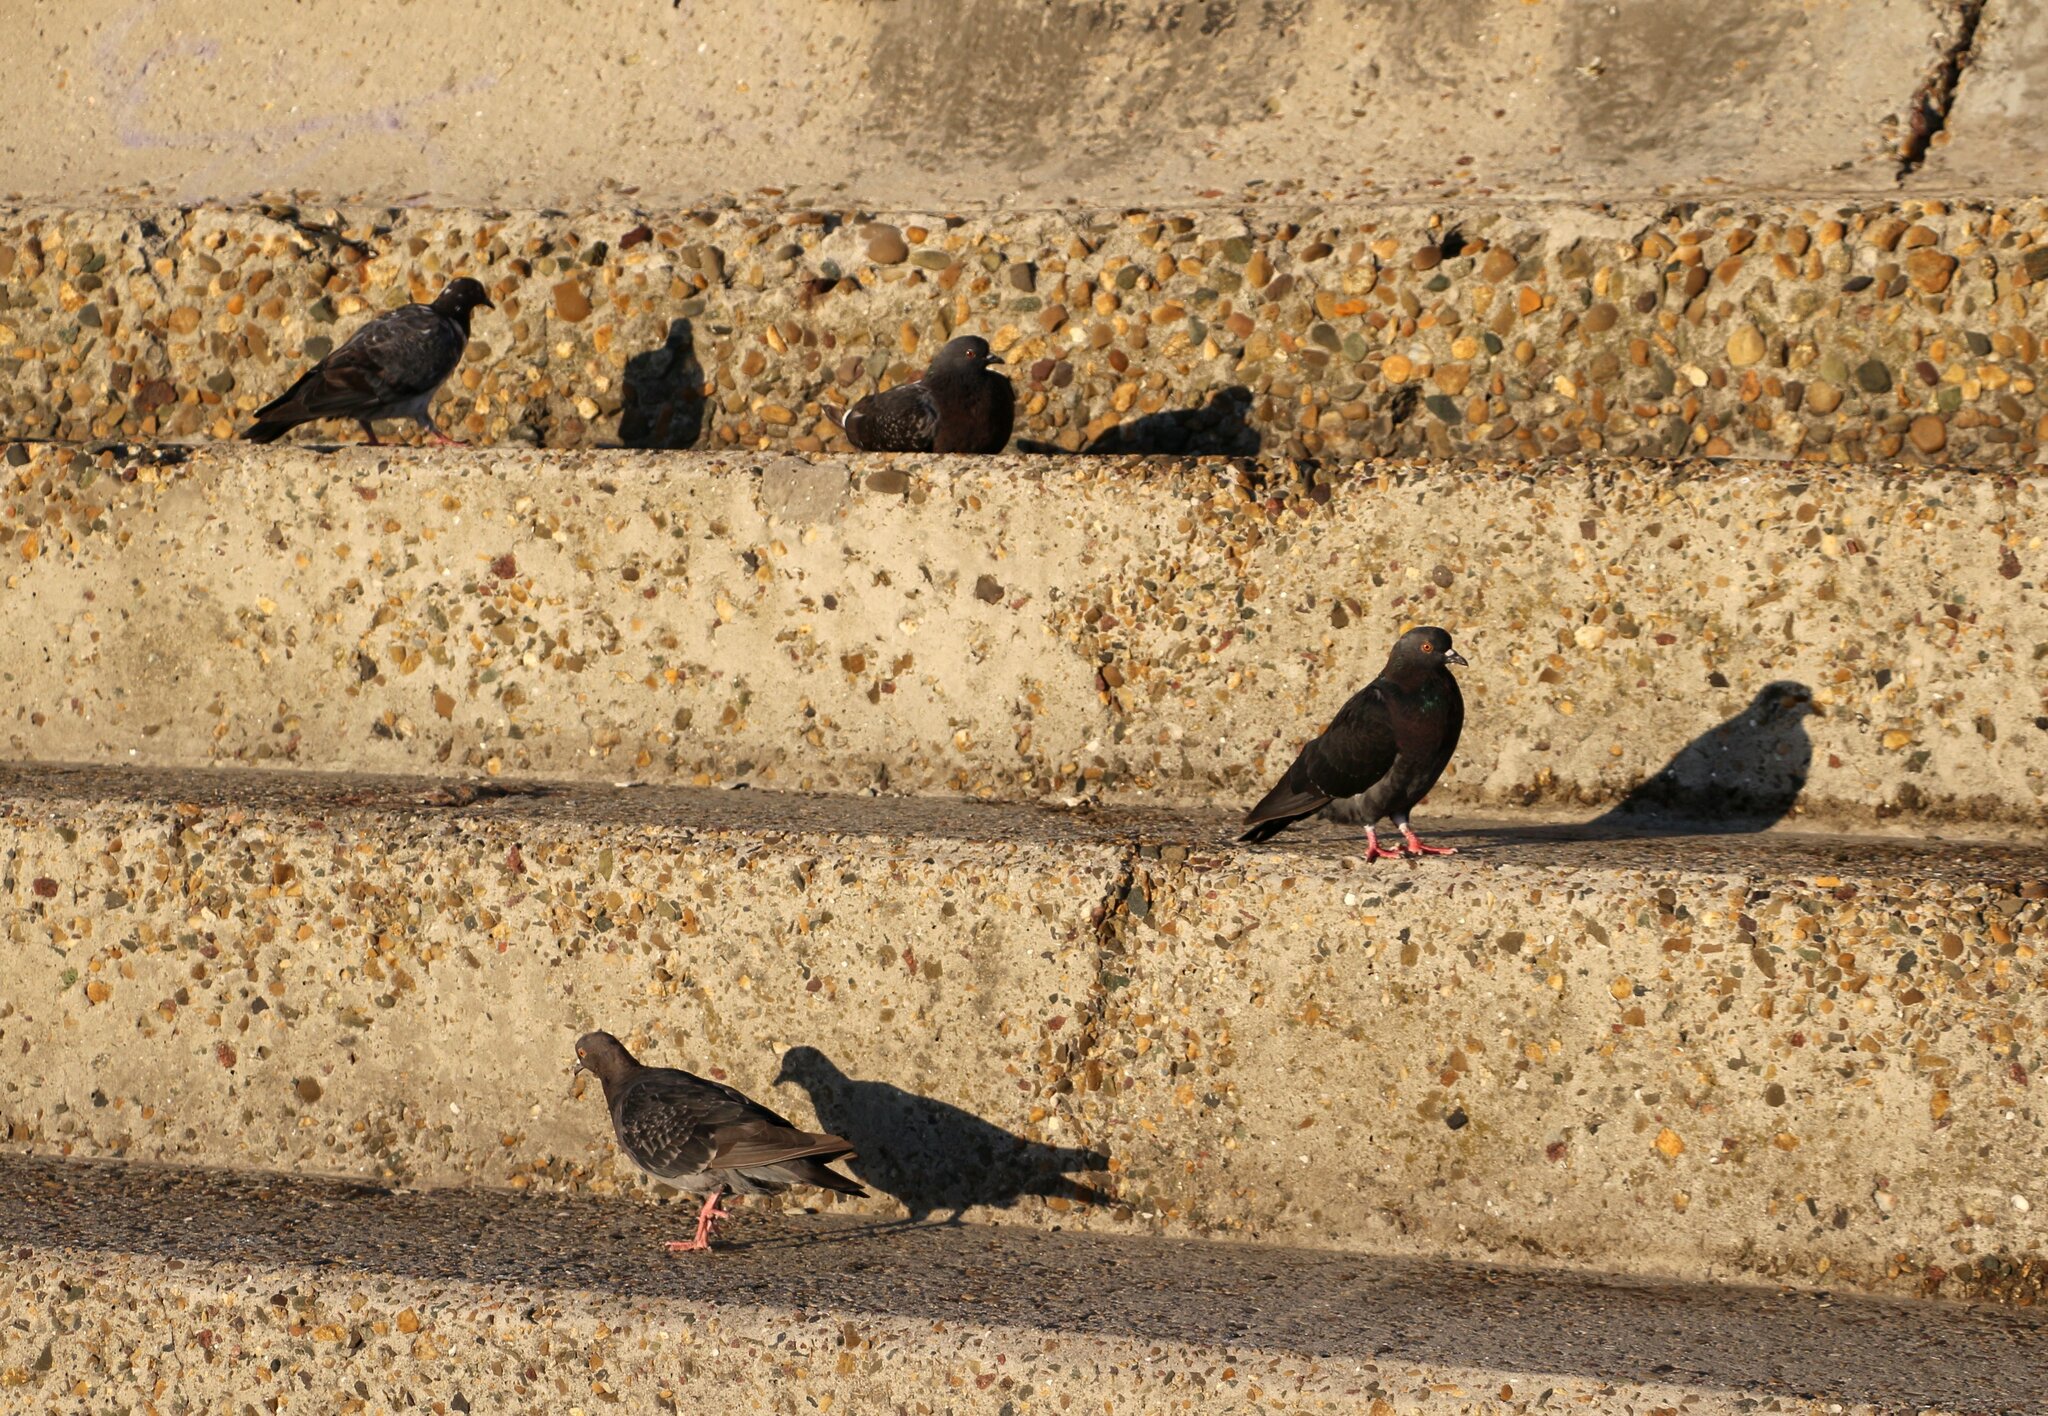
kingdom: Animalia
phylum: Chordata
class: Aves
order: Columbiformes
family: Columbidae
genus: Columba
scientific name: Columba livia
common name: Rock pigeon
